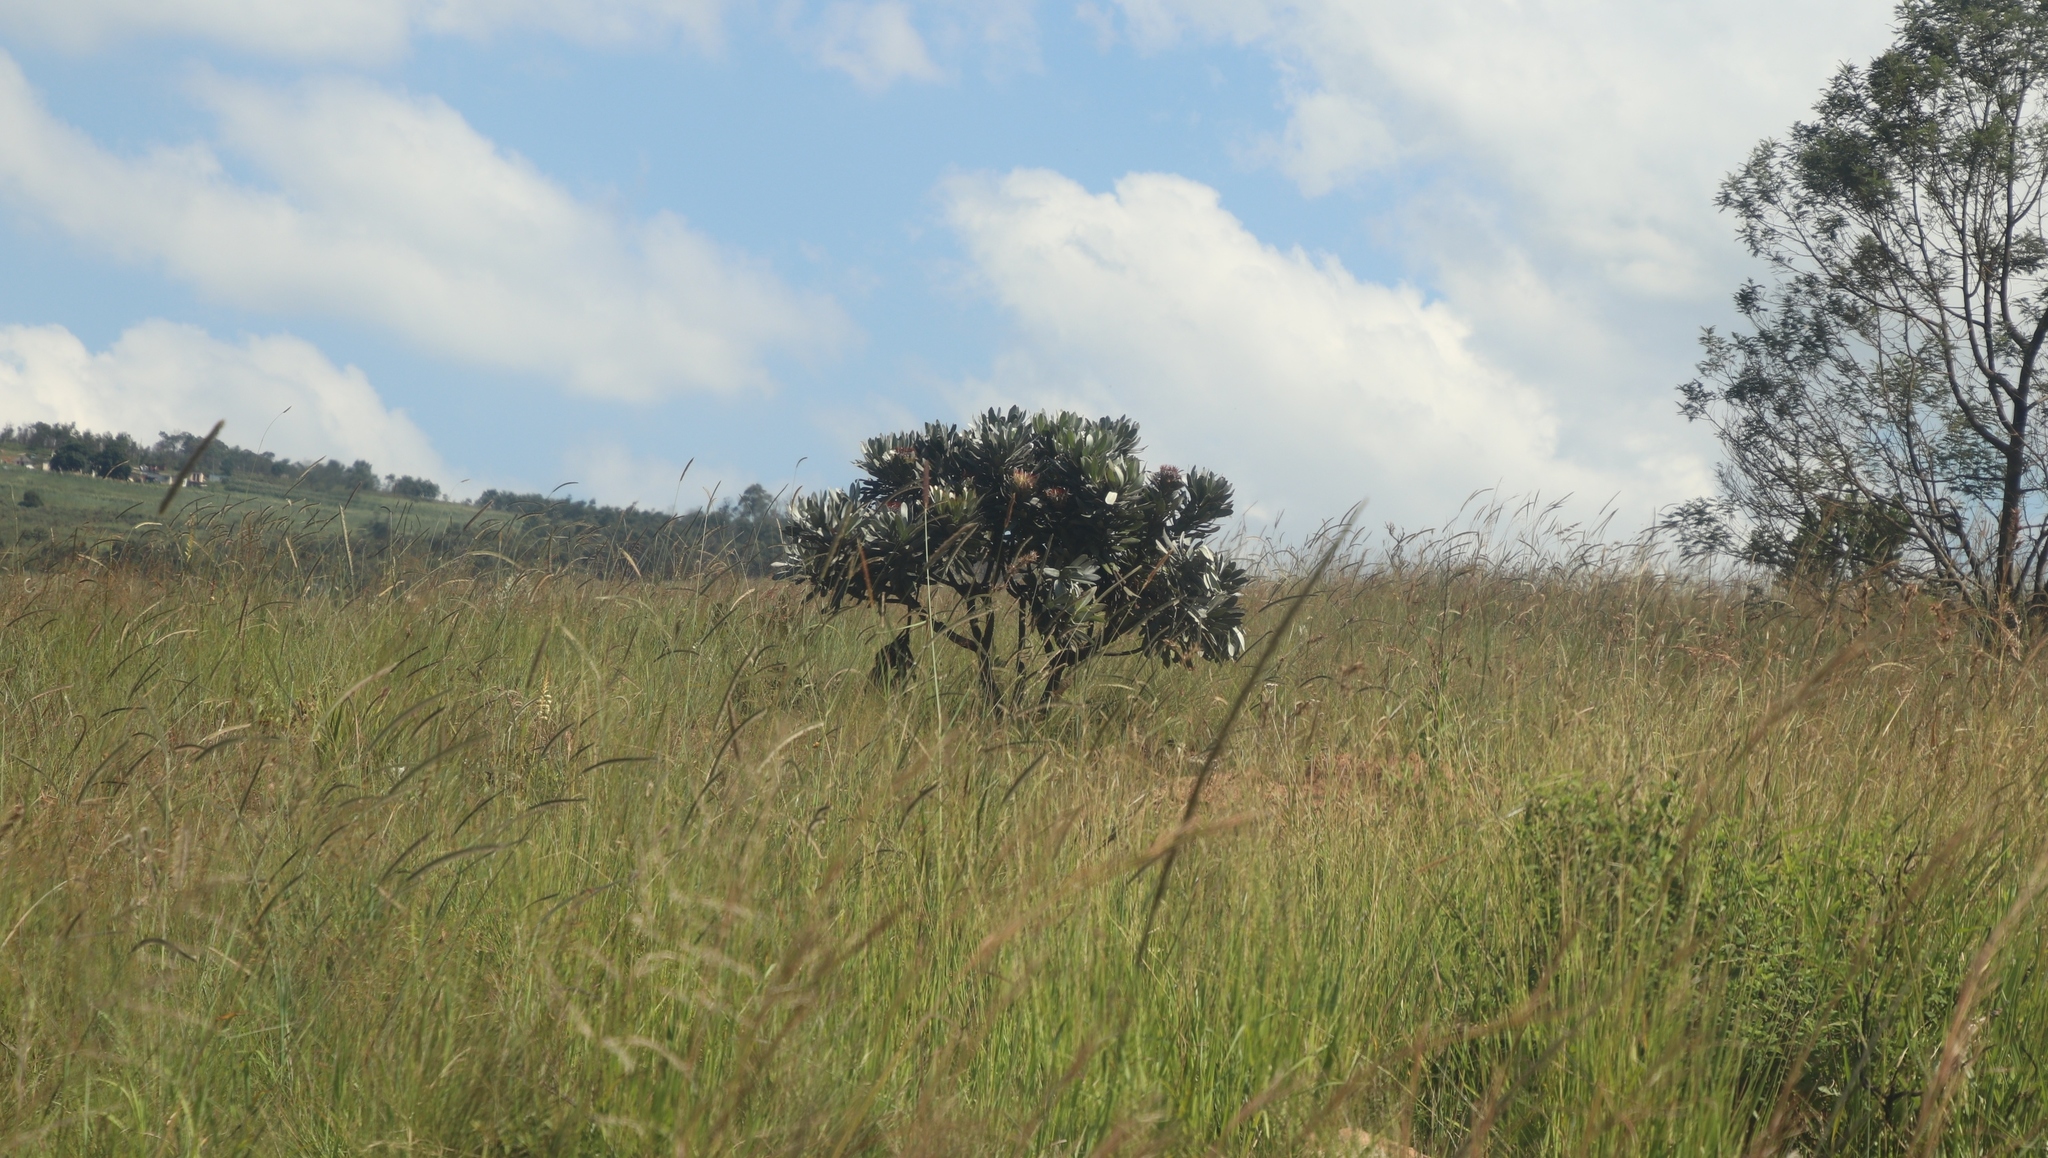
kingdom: Plantae
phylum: Tracheophyta
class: Magnoliopsida
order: Proteales
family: Proteaceae
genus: Protea
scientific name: Protea roupelliae
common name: Silver sugarbush
